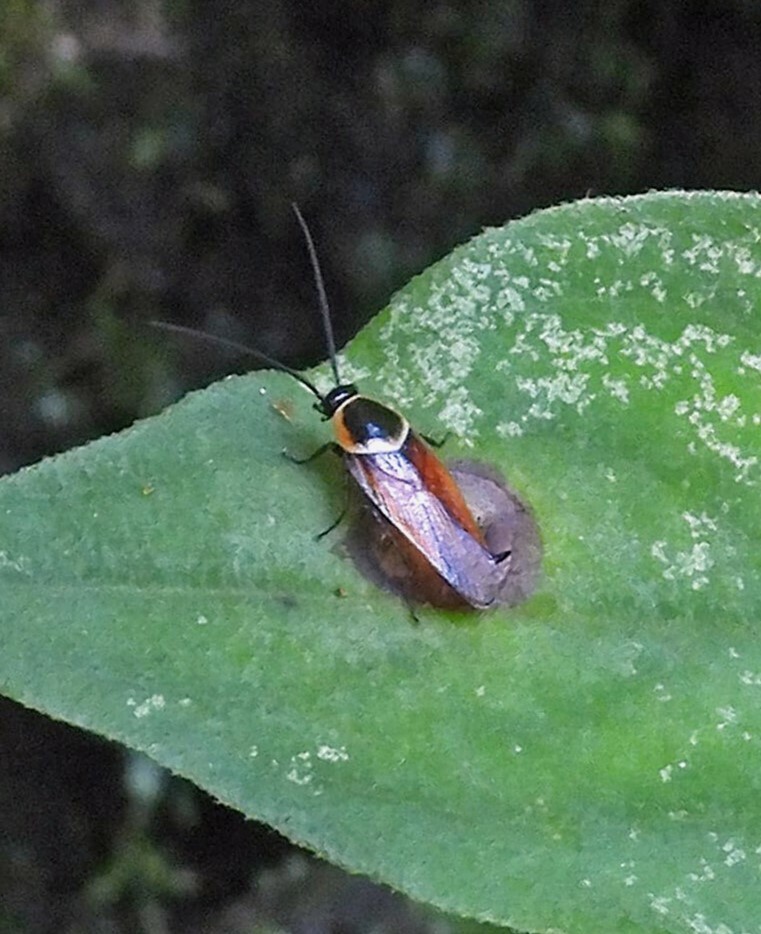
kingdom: Animalia
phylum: Arthropoda
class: Insecta
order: Blattodea
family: Ectobiidae
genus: Pseudomops
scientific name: Pseudomops neglectus
